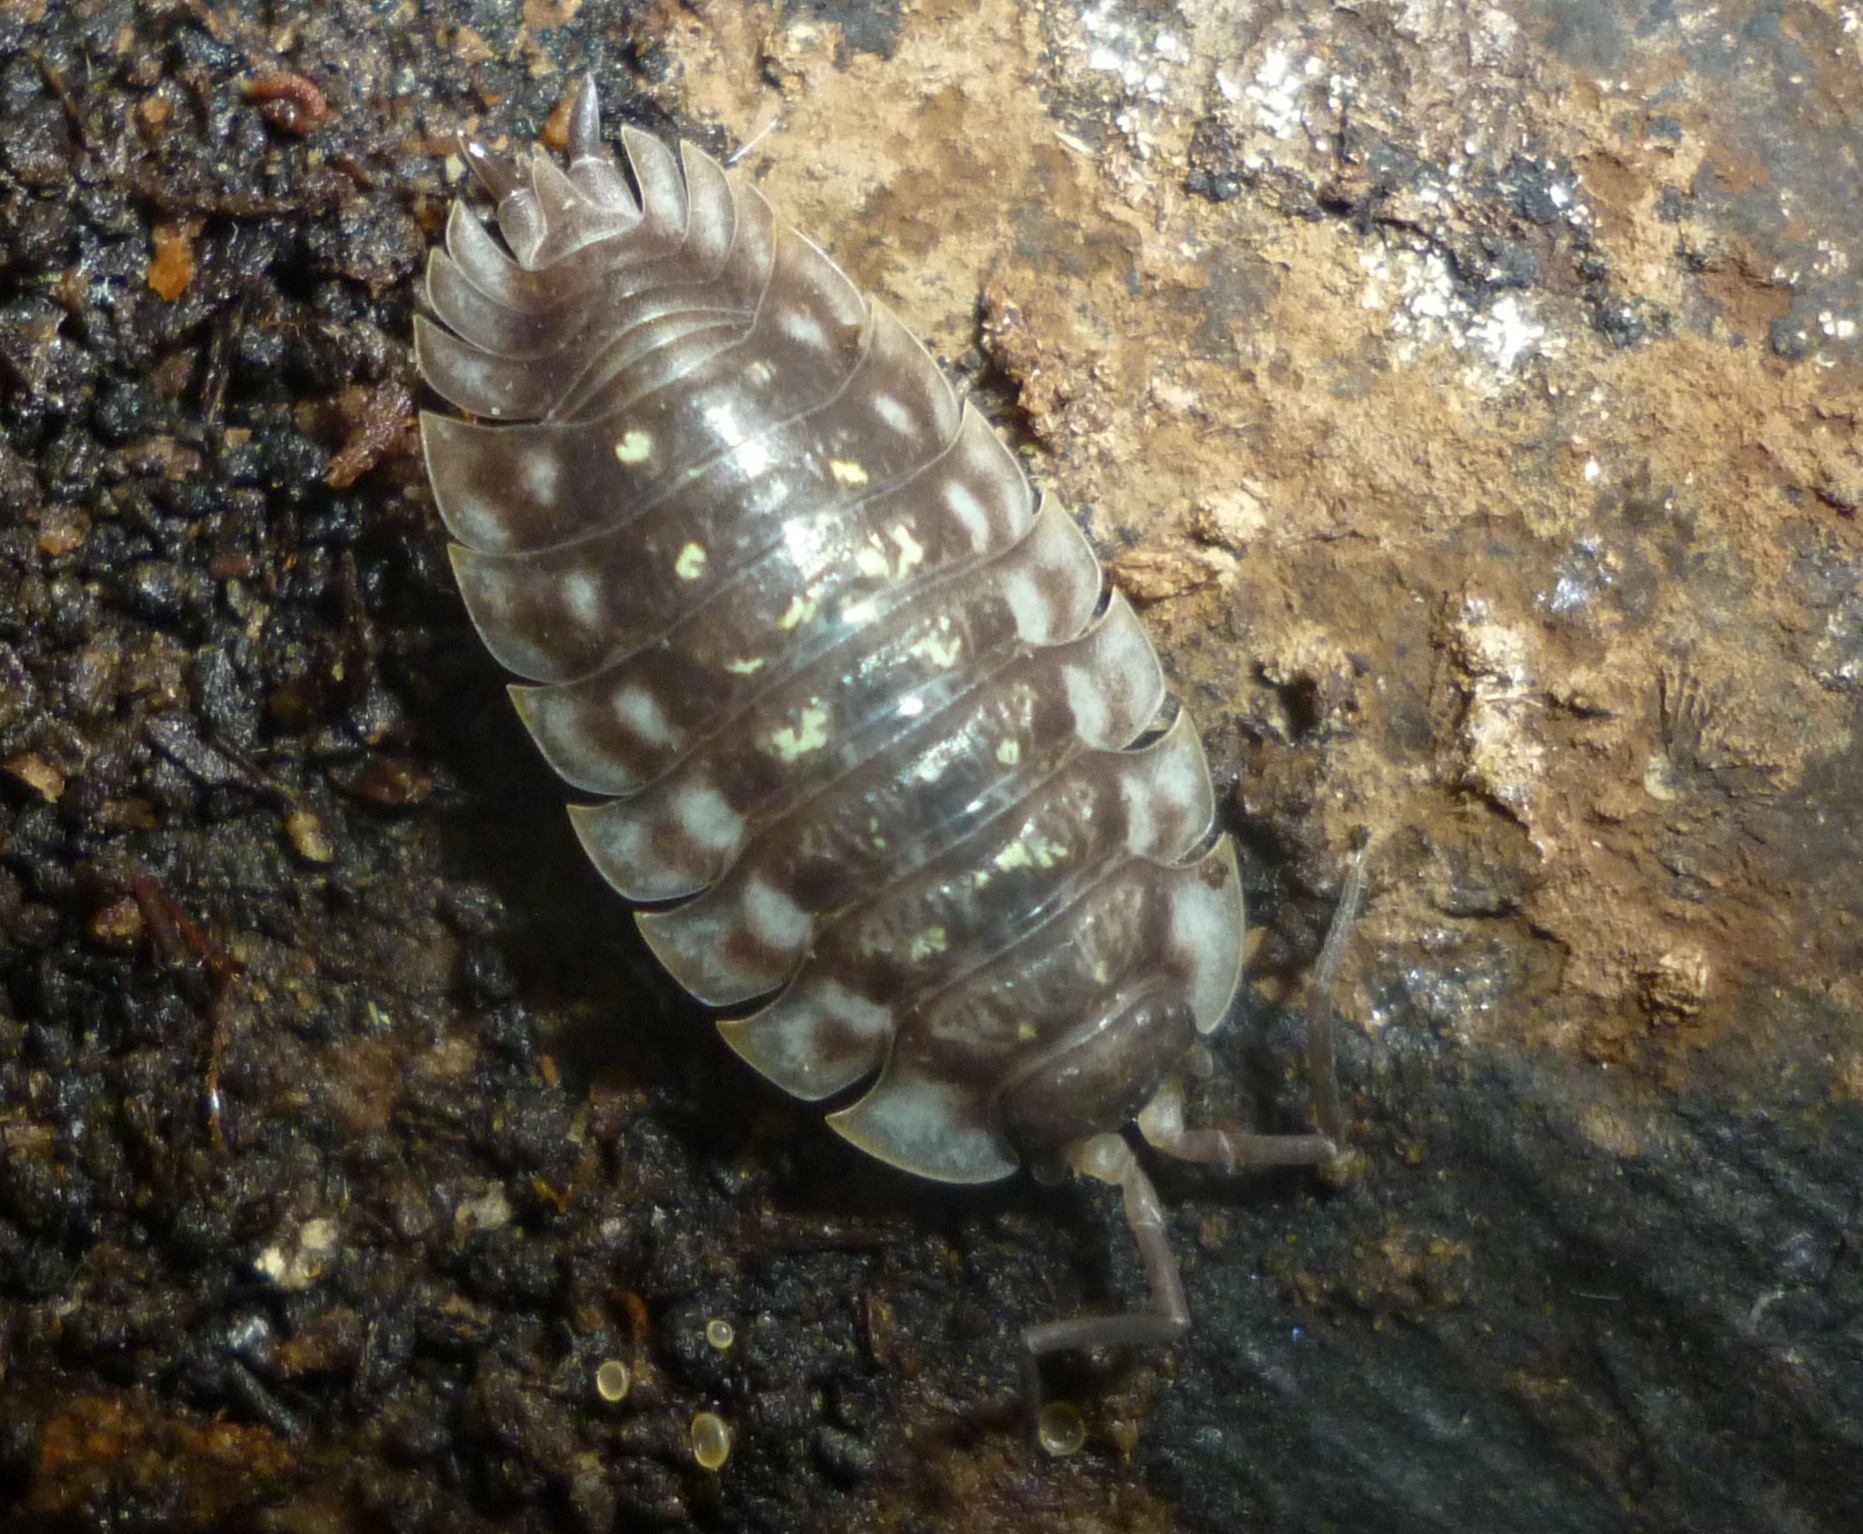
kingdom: Animalia
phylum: Arthropoda
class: Malacostraca
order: Isopoda
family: Oniscidae
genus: Oniscus
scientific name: Oniscus asellus
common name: Common shiny woodlouse
